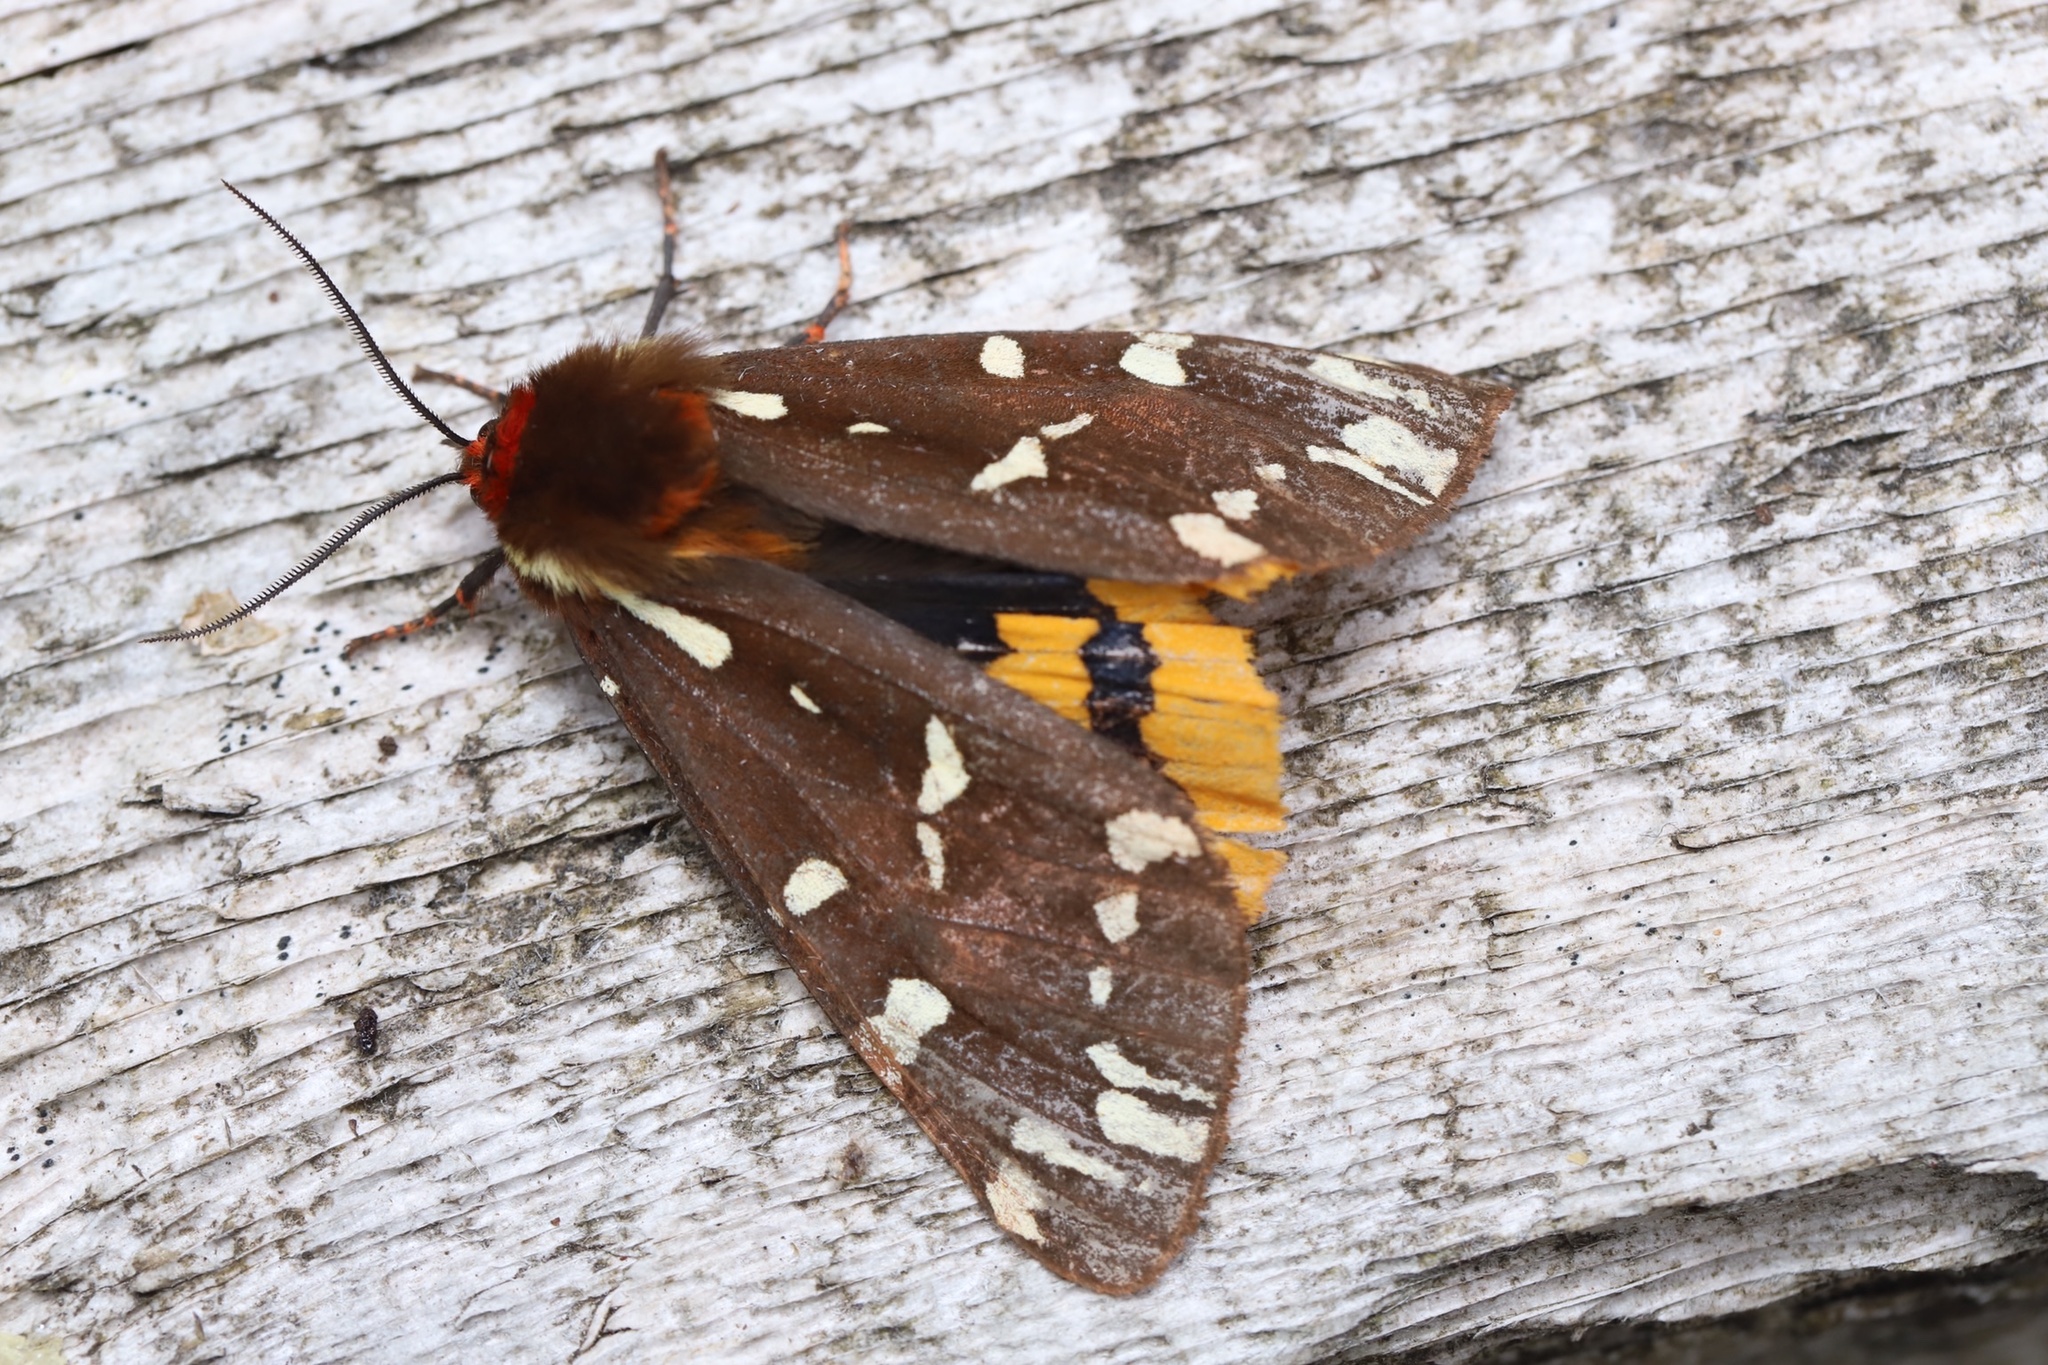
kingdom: Animalia
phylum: Arthropoda
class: Insecta
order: Lepidoptera
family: Erebidae
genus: Arctia
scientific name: Arctia parthenos
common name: St. lawrence tiger moth
